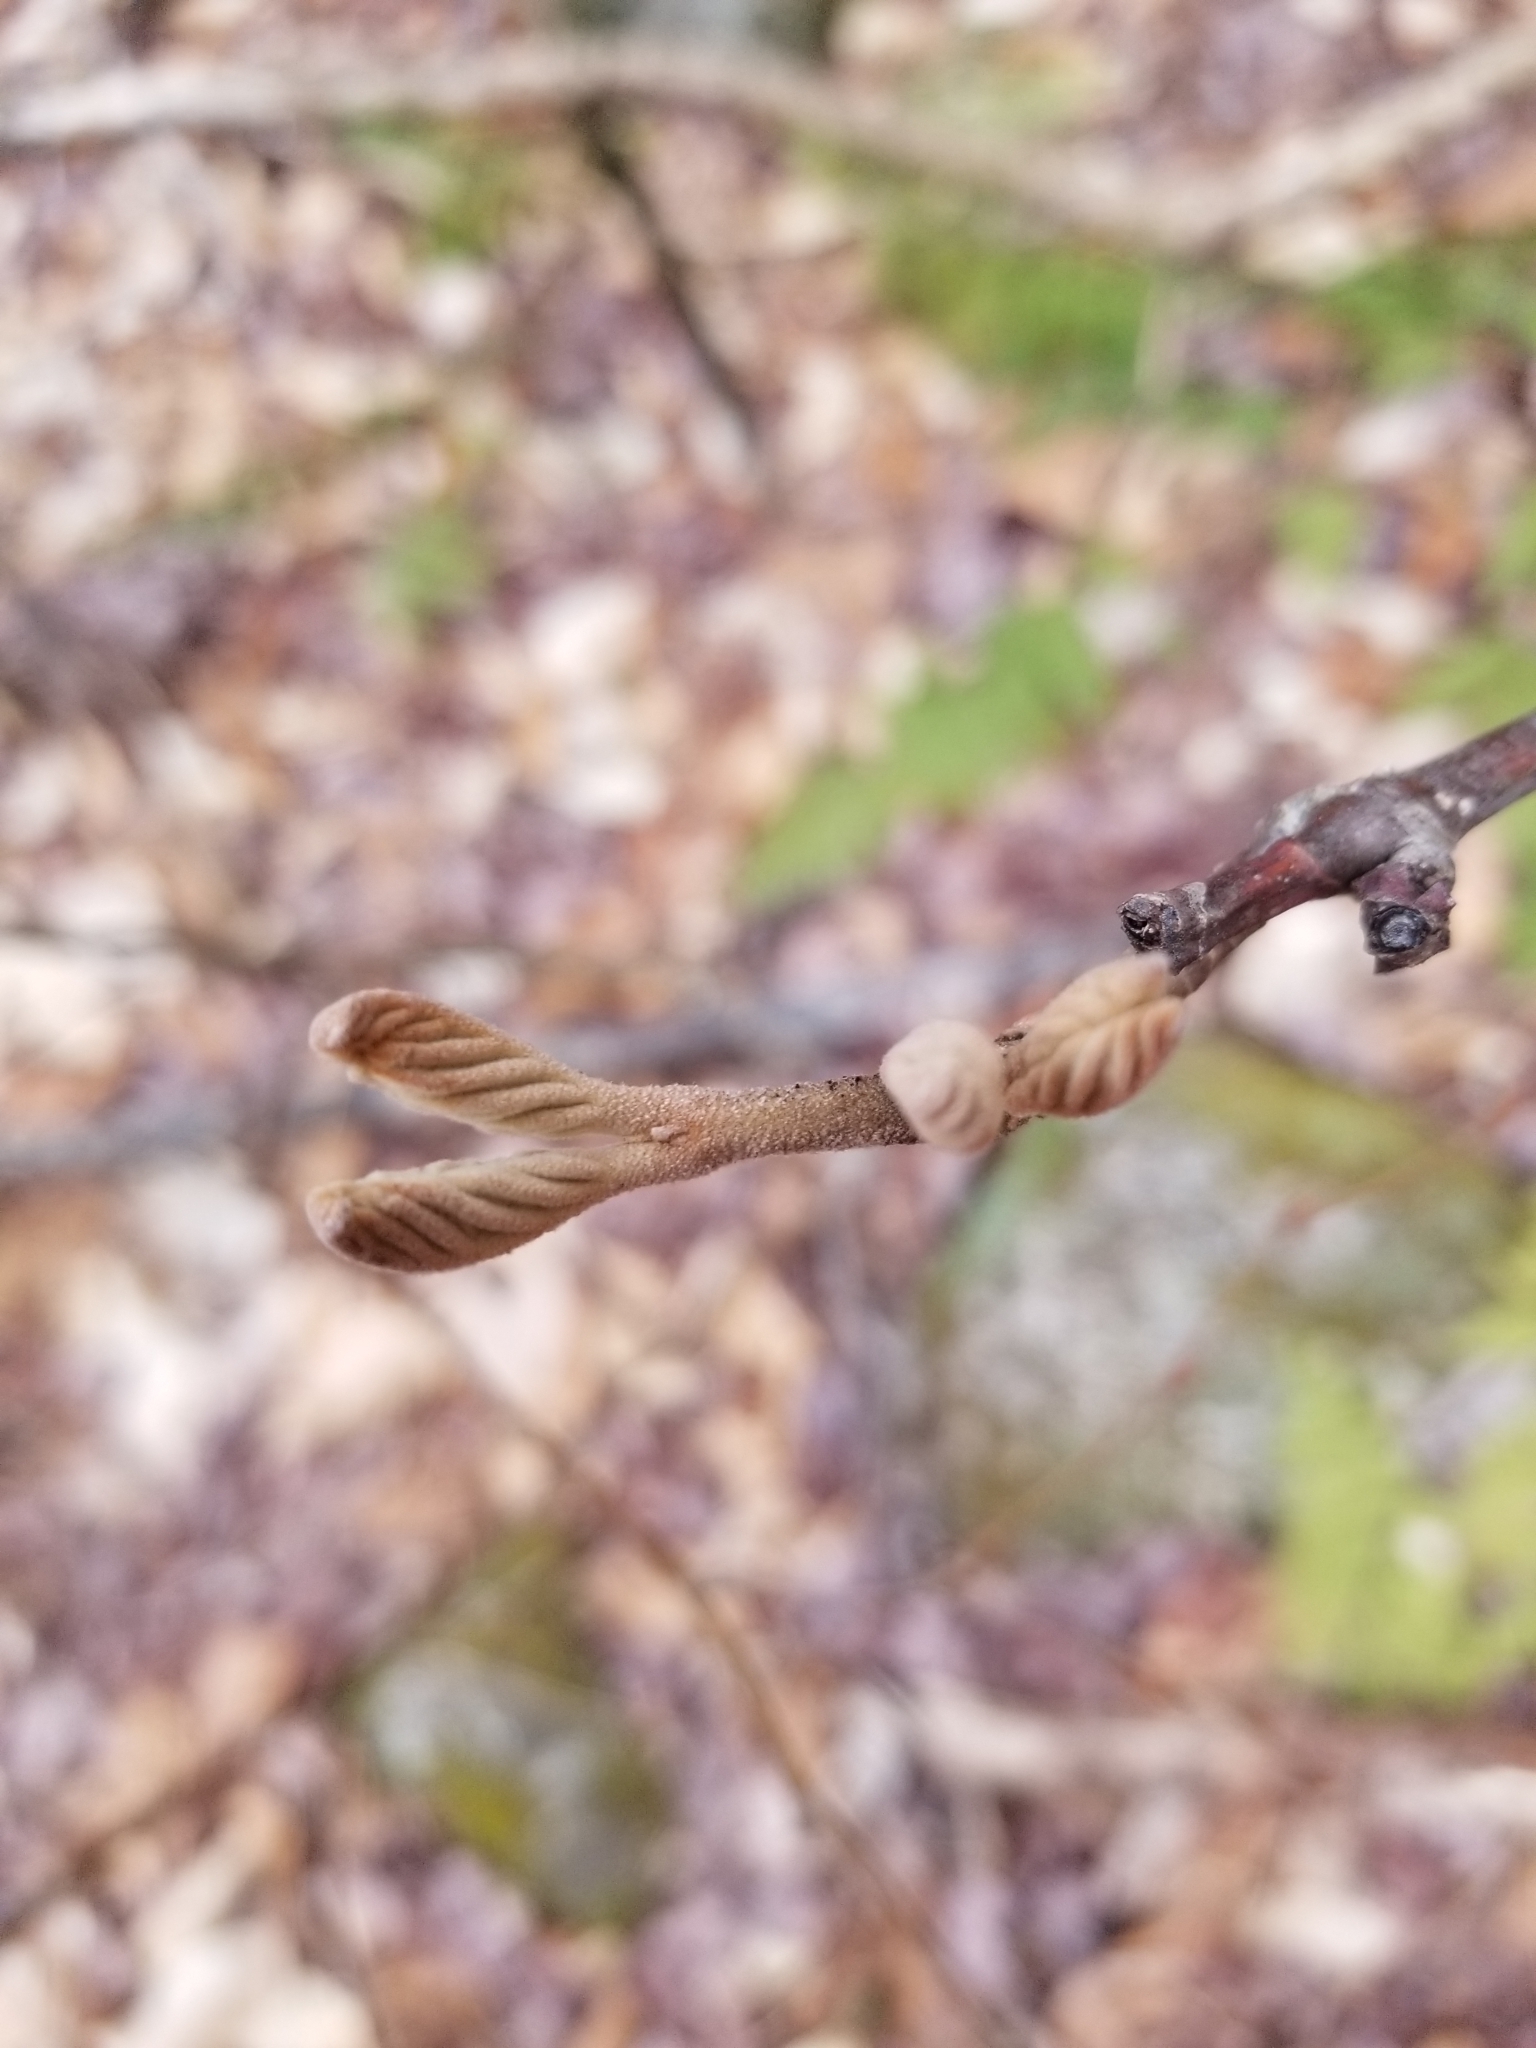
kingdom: Plantae
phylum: Tracheophyta
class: Magnoliopsida
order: Dipsacales
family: Viburnaceae
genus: Viburnum
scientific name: Viburnum lantanoides
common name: Hobblebush
